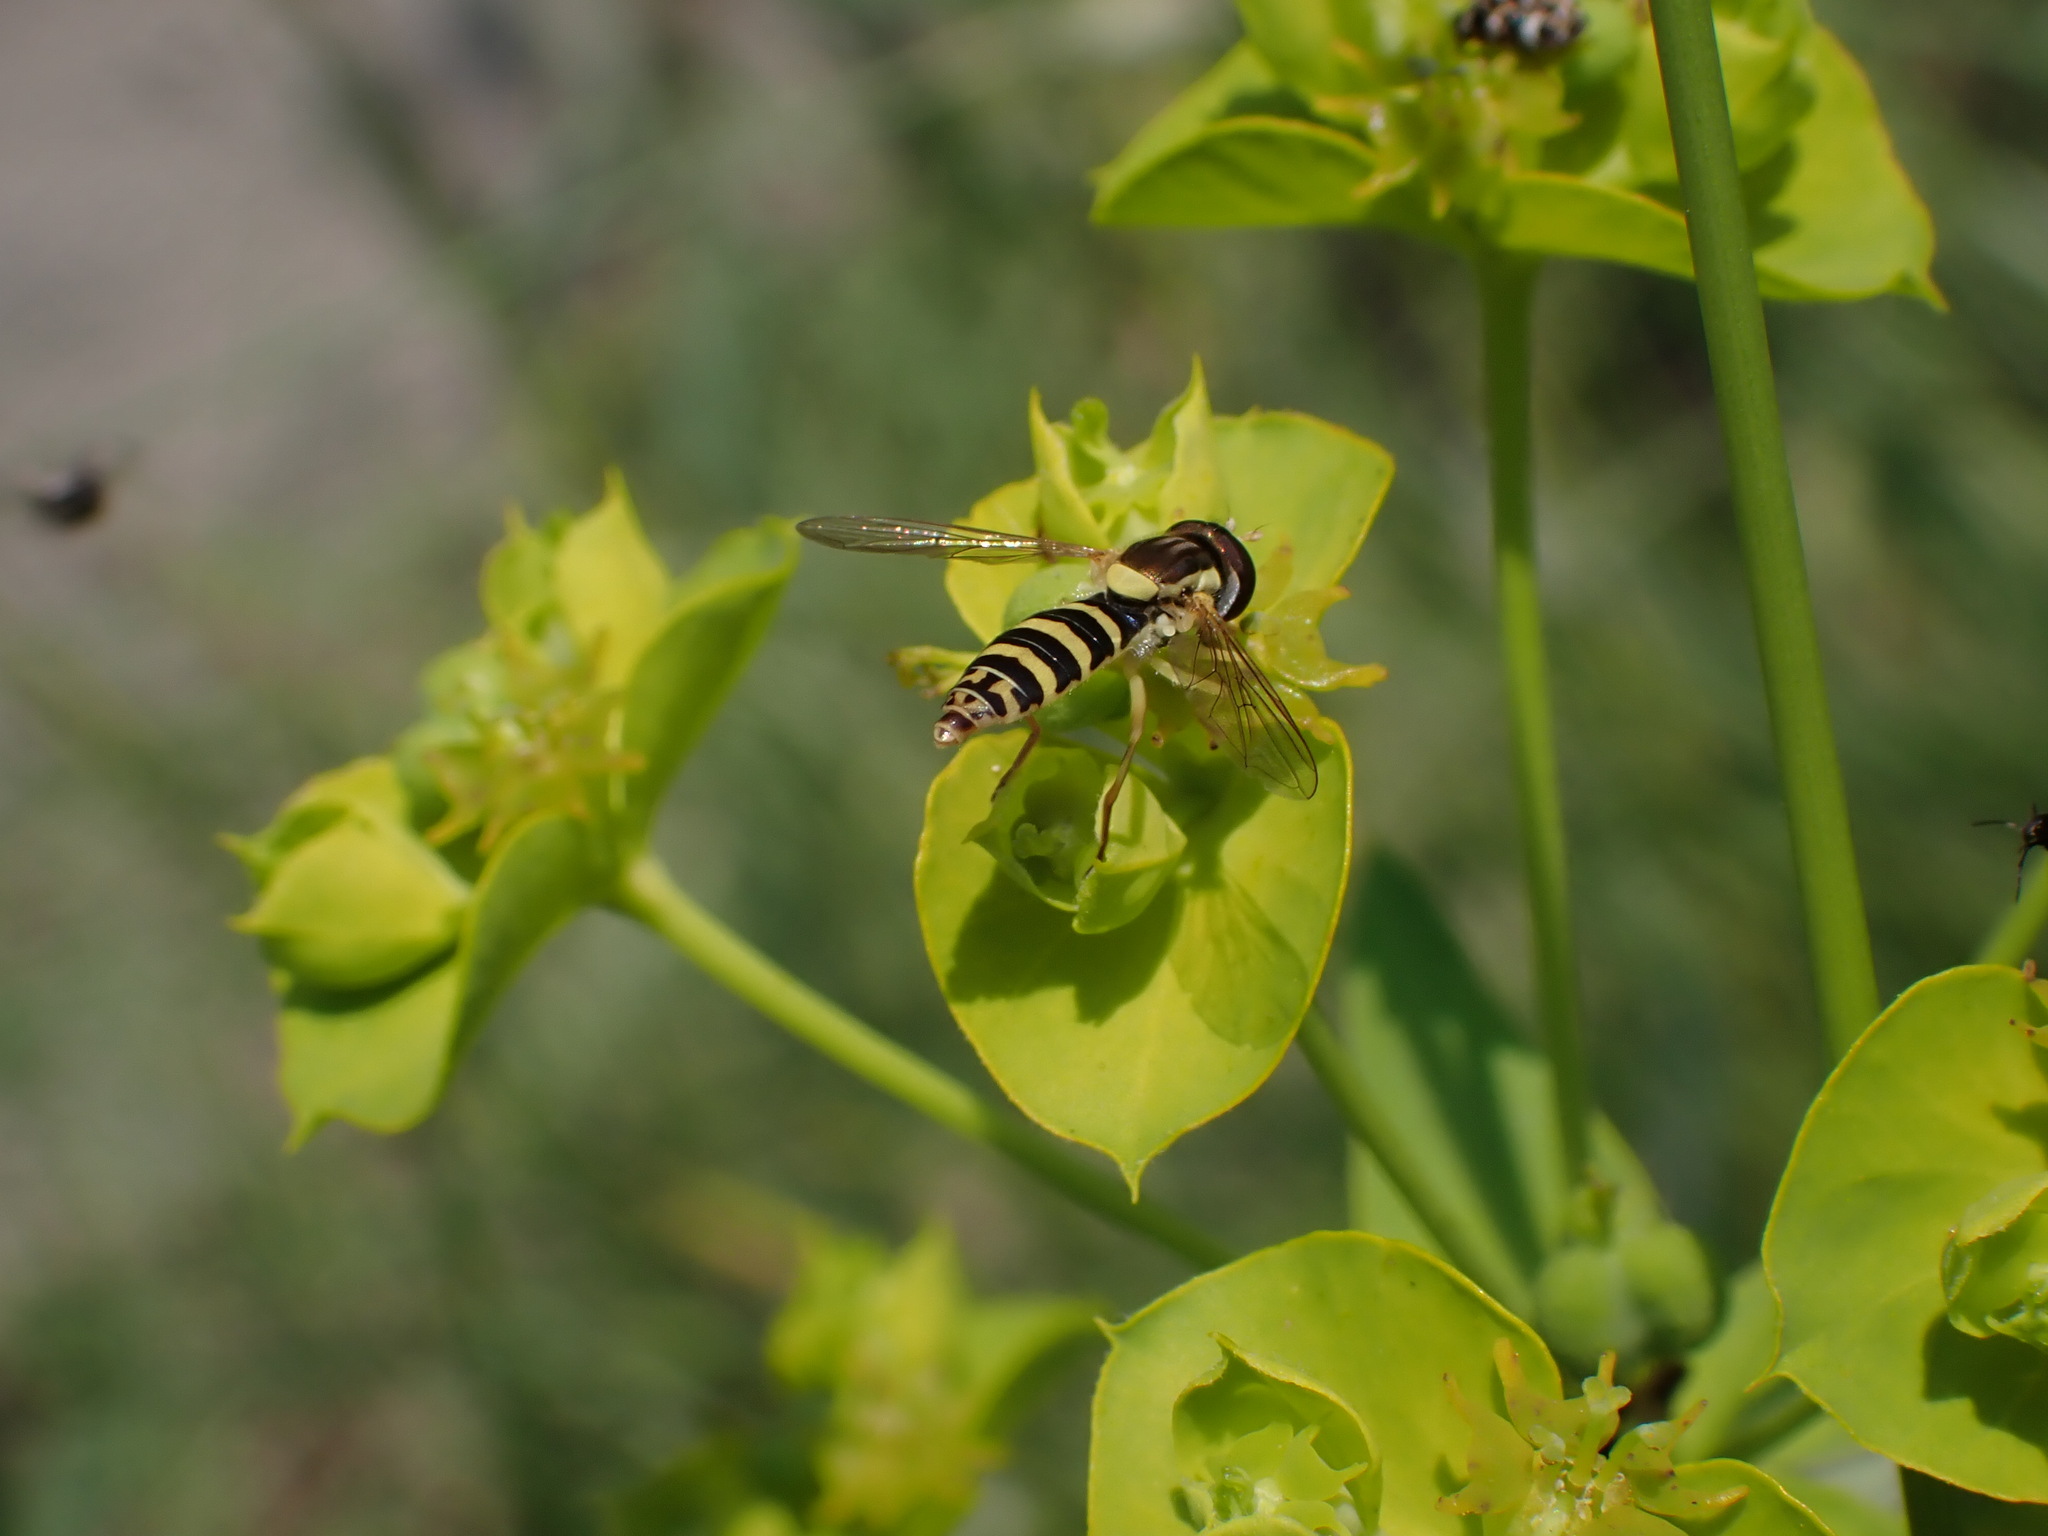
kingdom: Animalia
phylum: Arthropoda
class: Insecta
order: Diptera
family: Syrphidae
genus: Sphaerophoria
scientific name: Sphaerophoria
